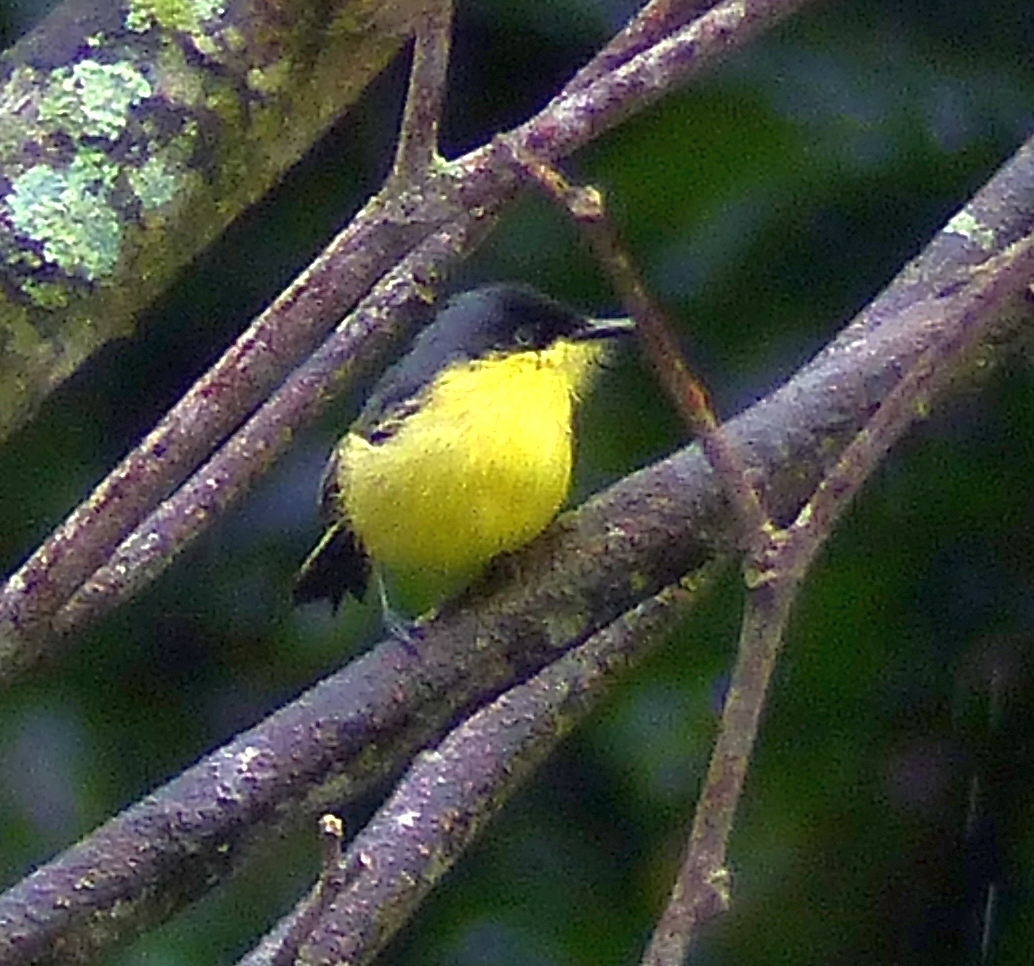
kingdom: Animalia
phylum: Chordata
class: Aves
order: Passeriformes
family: Tyrannidae
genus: Todirostrum
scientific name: Todirostrum cinereum
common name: Common tody-flycatcher
